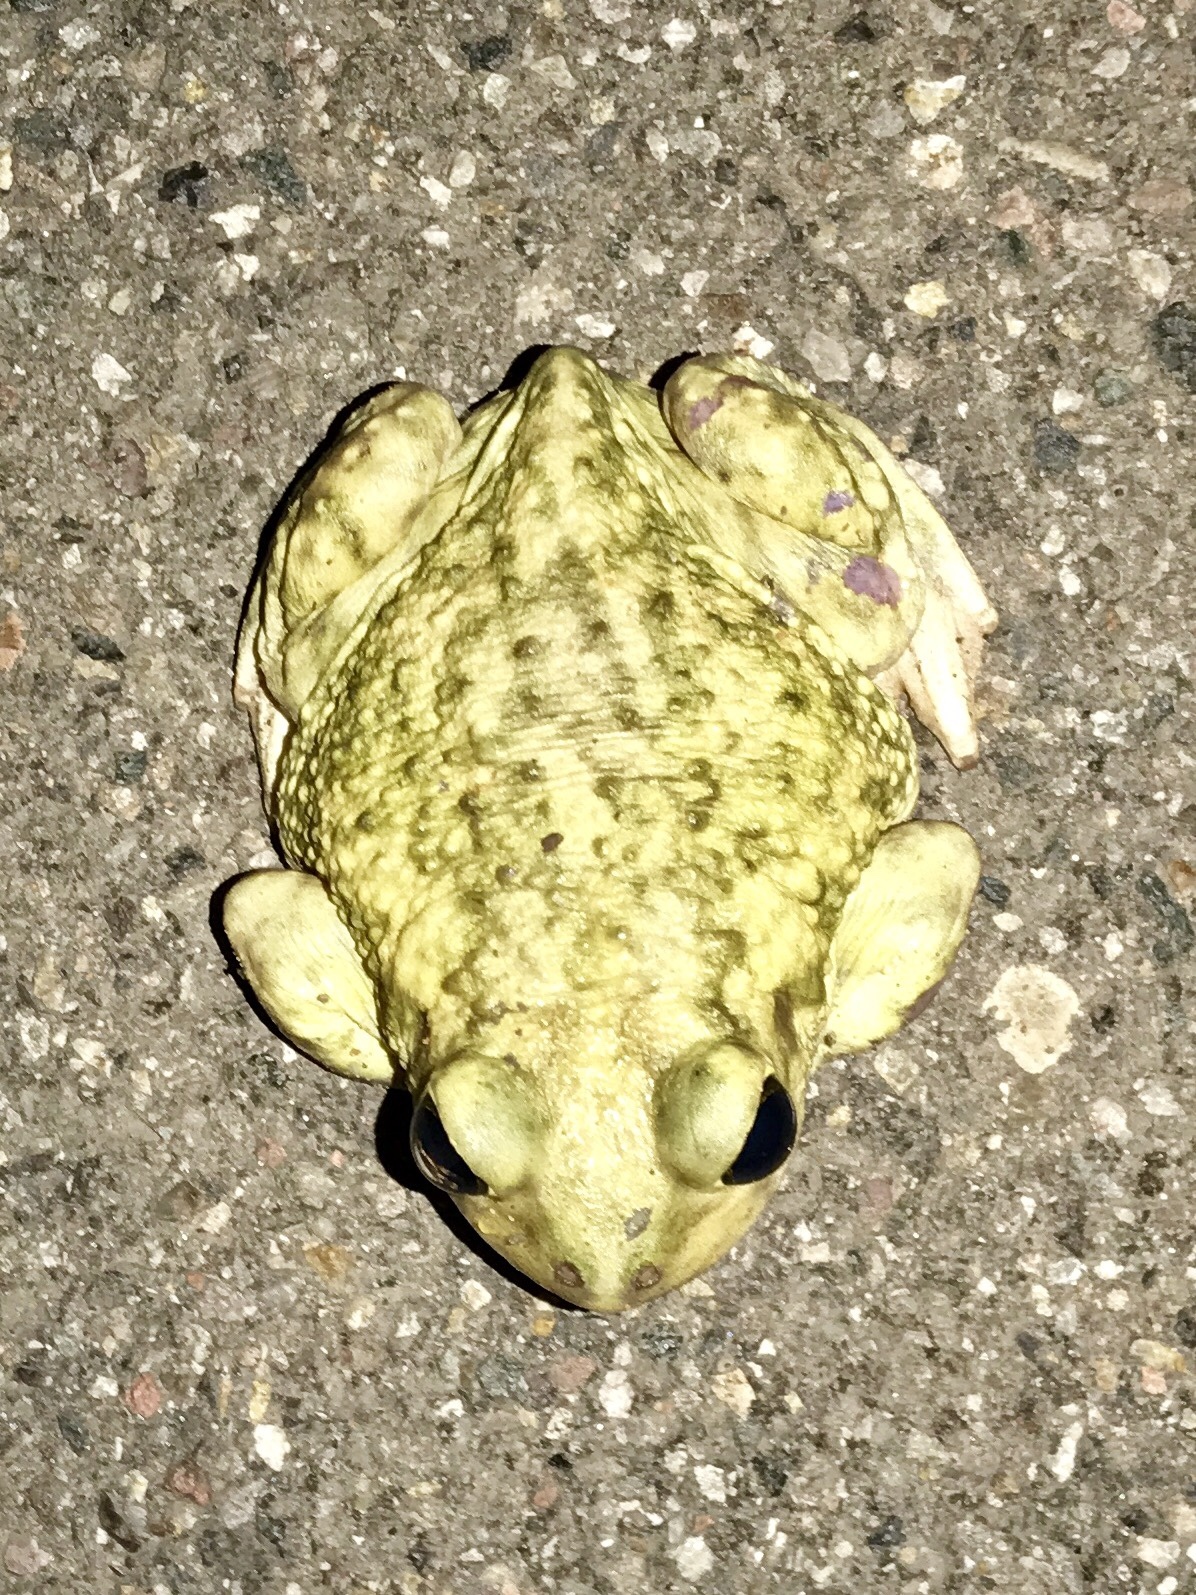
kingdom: Animalia
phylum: Chordata
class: Amphibia
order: Anura
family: Scaphiopodidae
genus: Scaphiopus
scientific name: Scaphiopus couchii
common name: Couch's spadefoot toad
